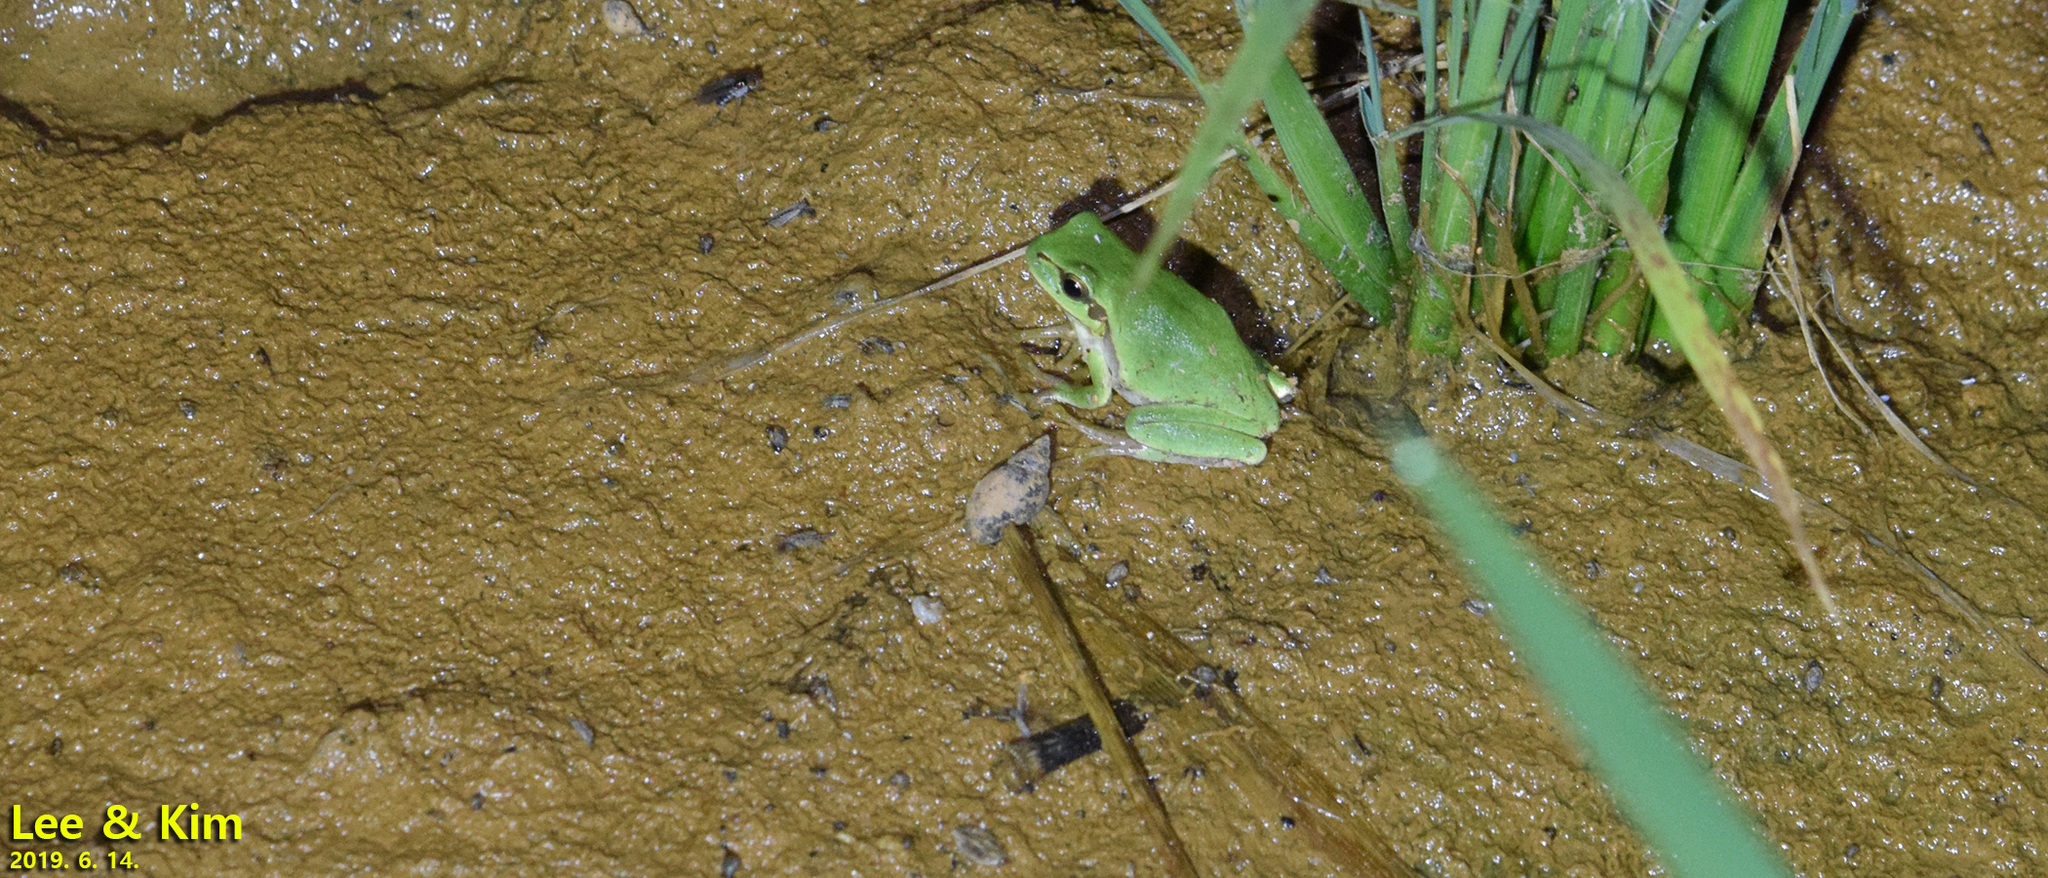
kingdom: Animalia
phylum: Chordata
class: Amphibia
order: Anura
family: Hylidae
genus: Dryophytes
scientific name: Dryophytes immaculatus
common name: North china treefrog
